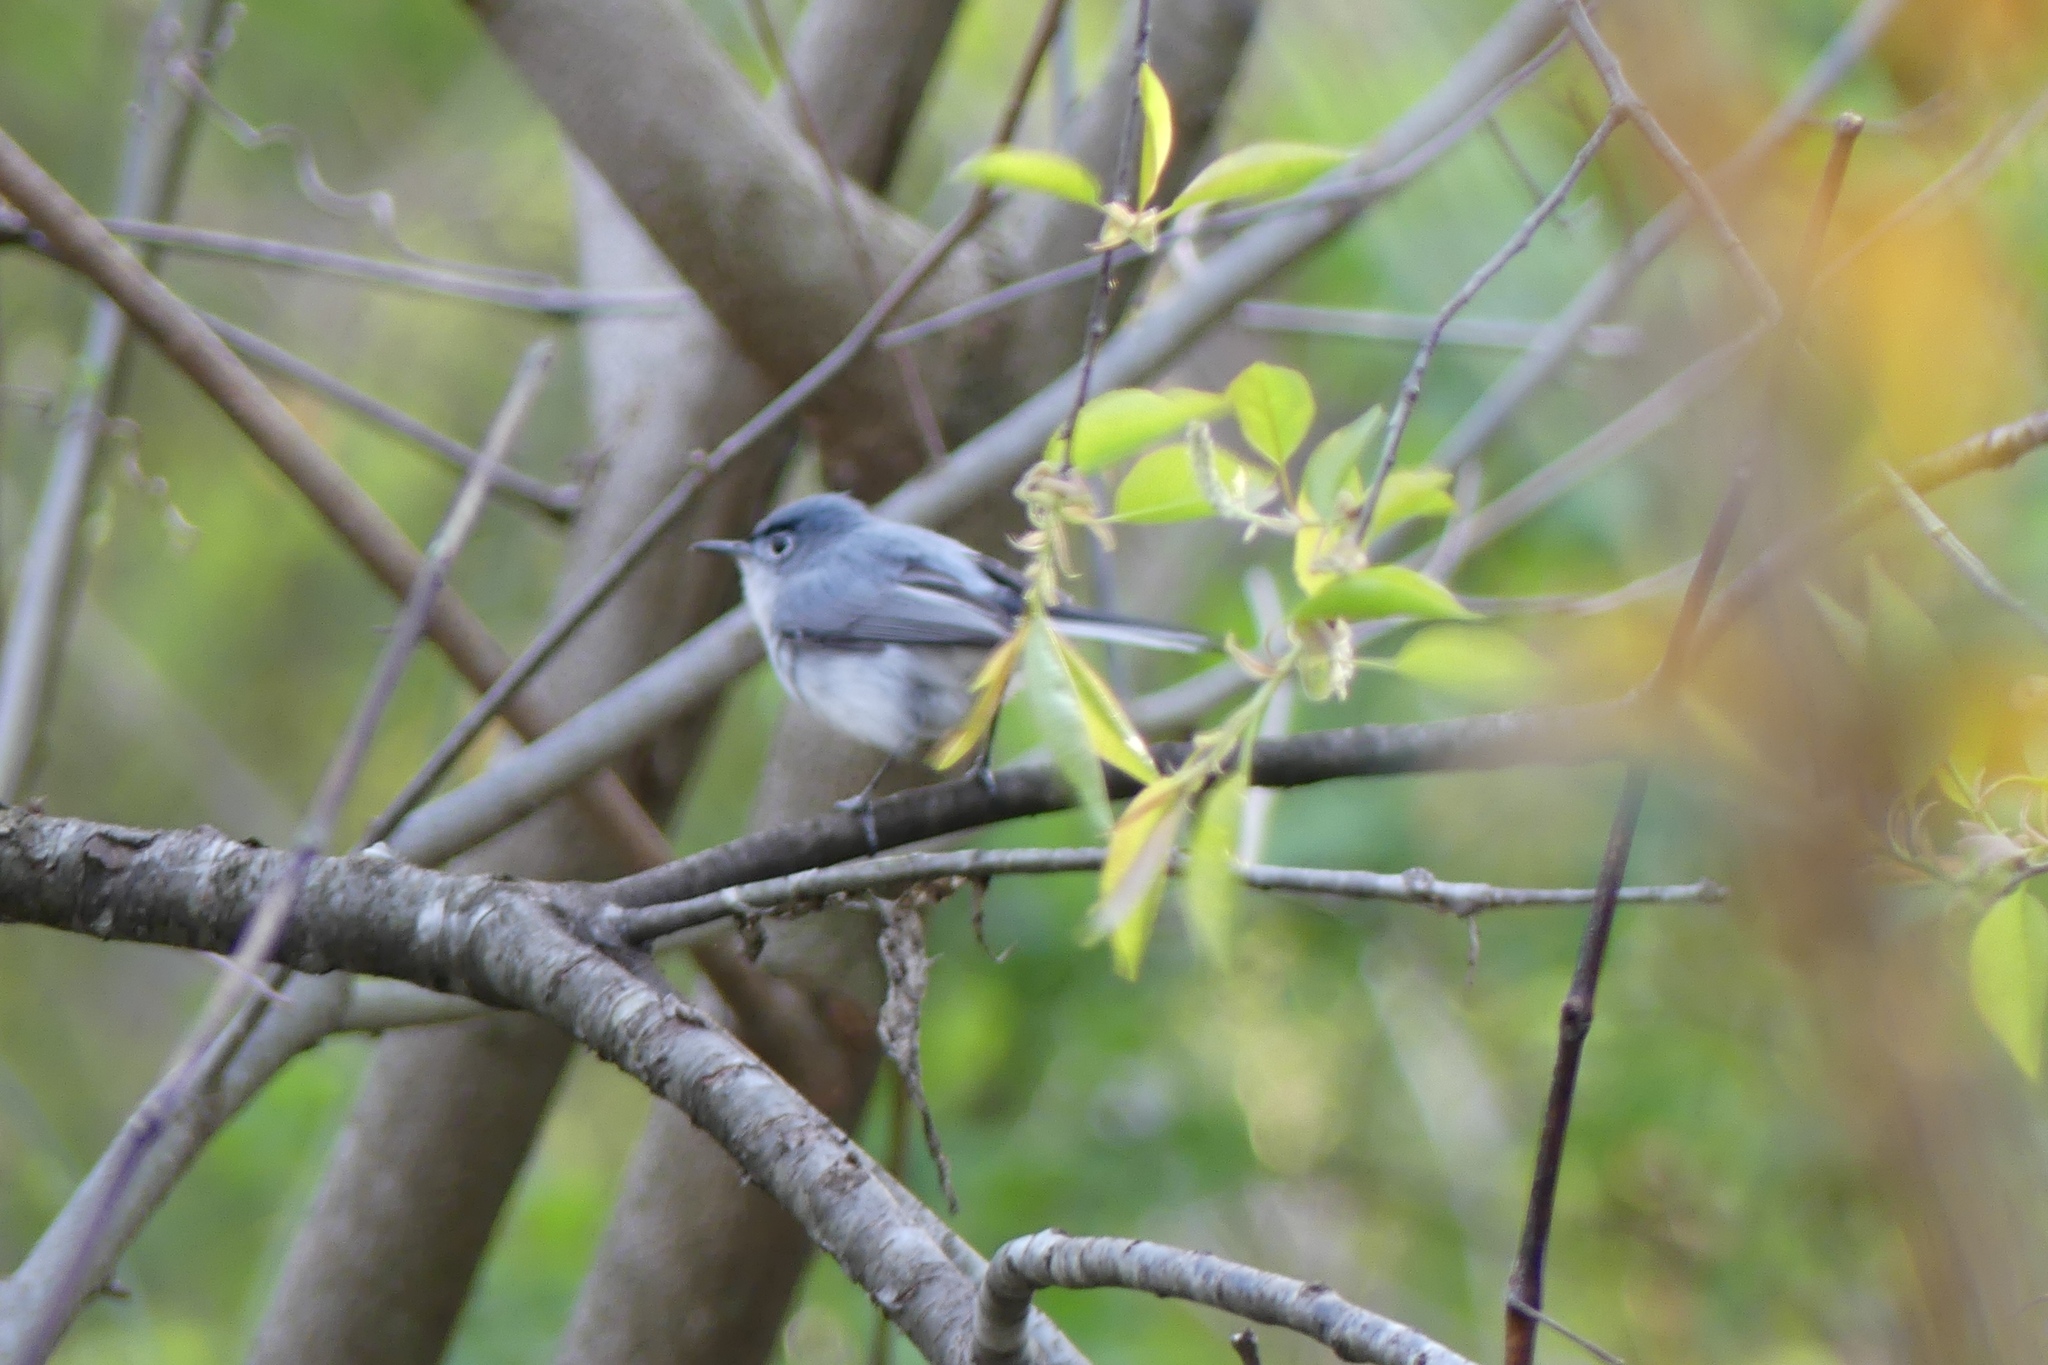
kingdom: Animalia
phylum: Chordata
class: Aves
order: Passeriformes
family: Polioptilidae
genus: Polioptila
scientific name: Polioptila caerulea
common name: Blue-gray gnatcatcher
